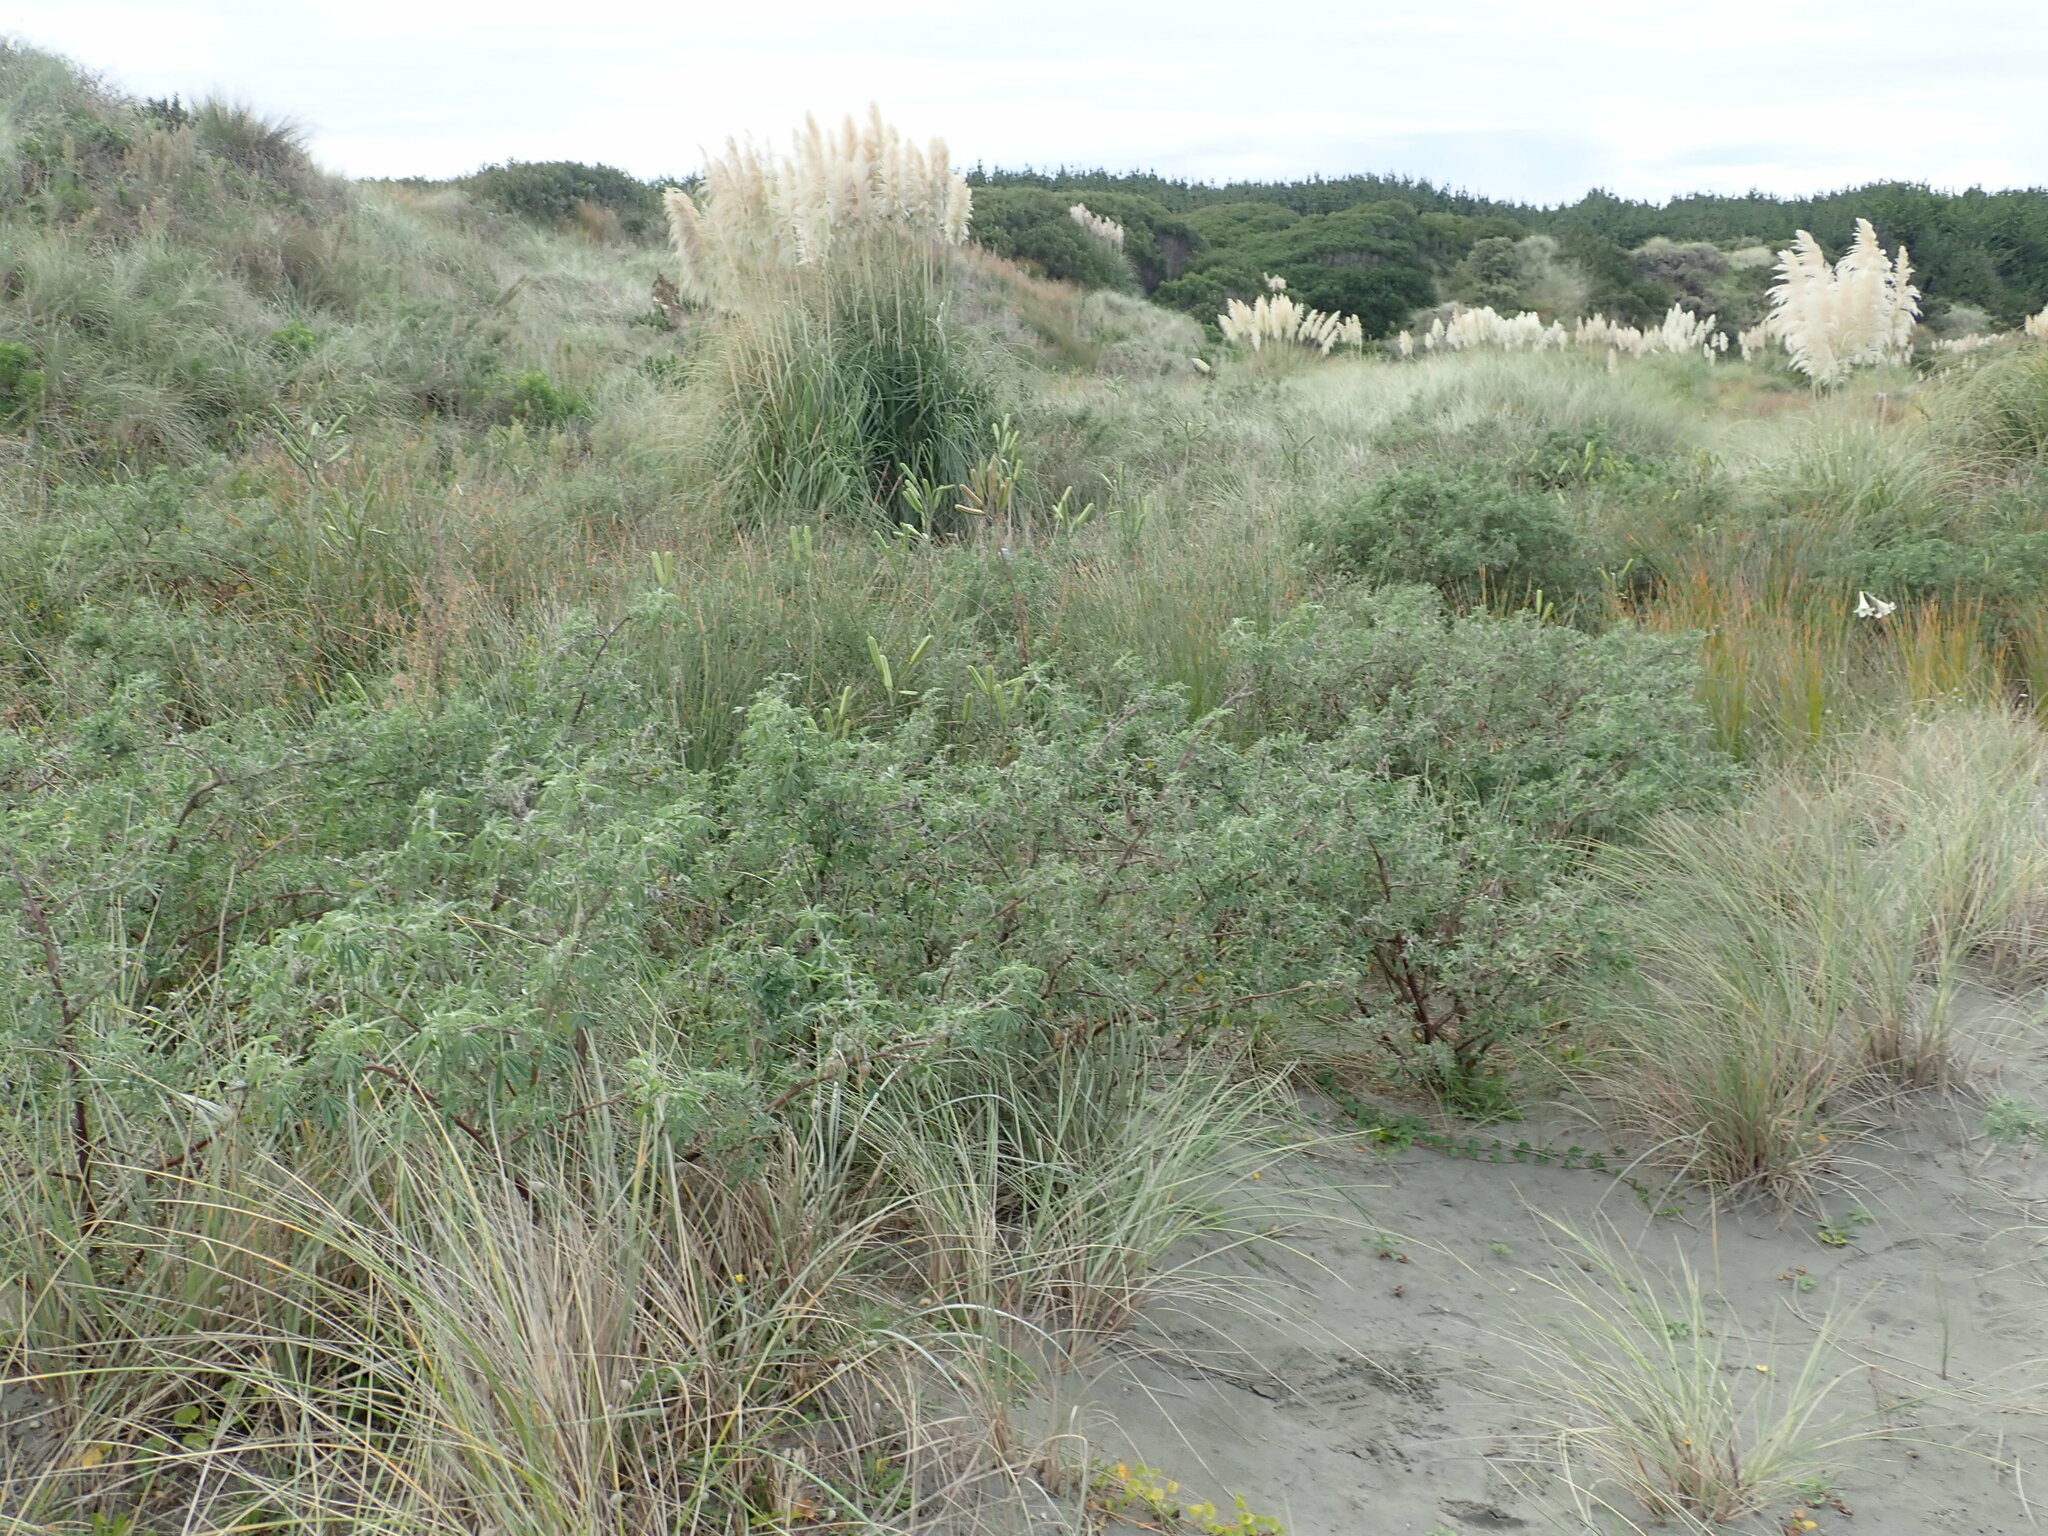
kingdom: Plantae
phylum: Tracheophyta
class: Magnoliopsida
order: Fabales
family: Fabaceae
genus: Lupinus
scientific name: Lupinus arboreus
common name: Yellow bush lupine
